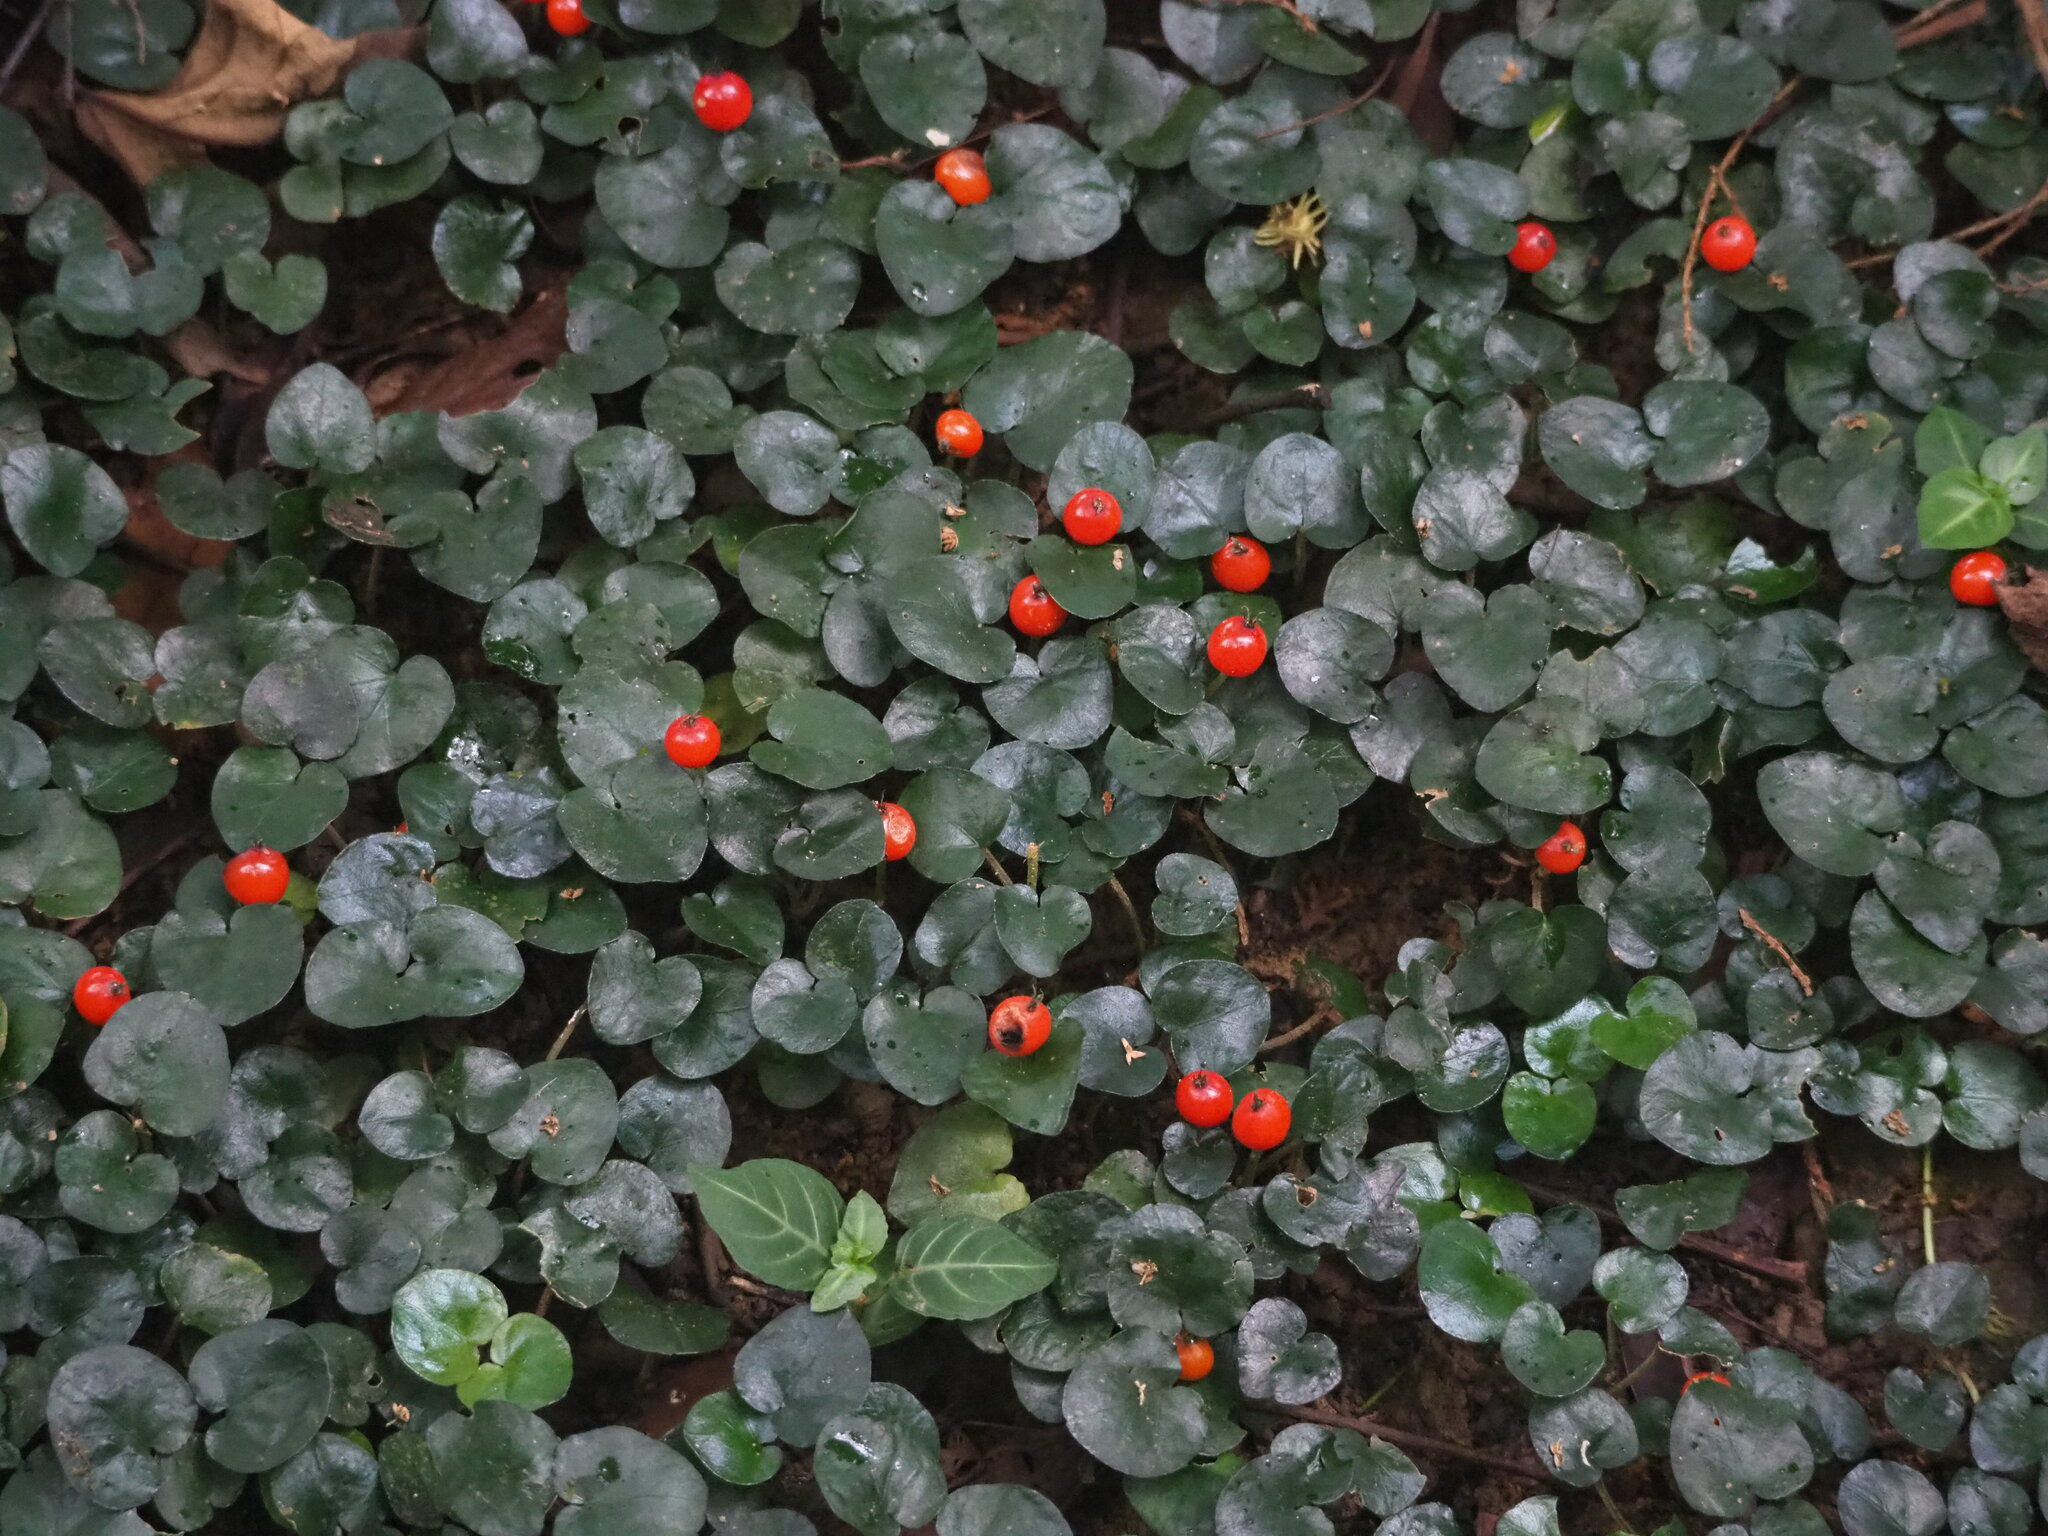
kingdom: Plantae
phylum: Tracheophyta
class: Magnoliopsida
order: Gentianales
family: Rubiaceae
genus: Geophila
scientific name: Geophila herbacea
